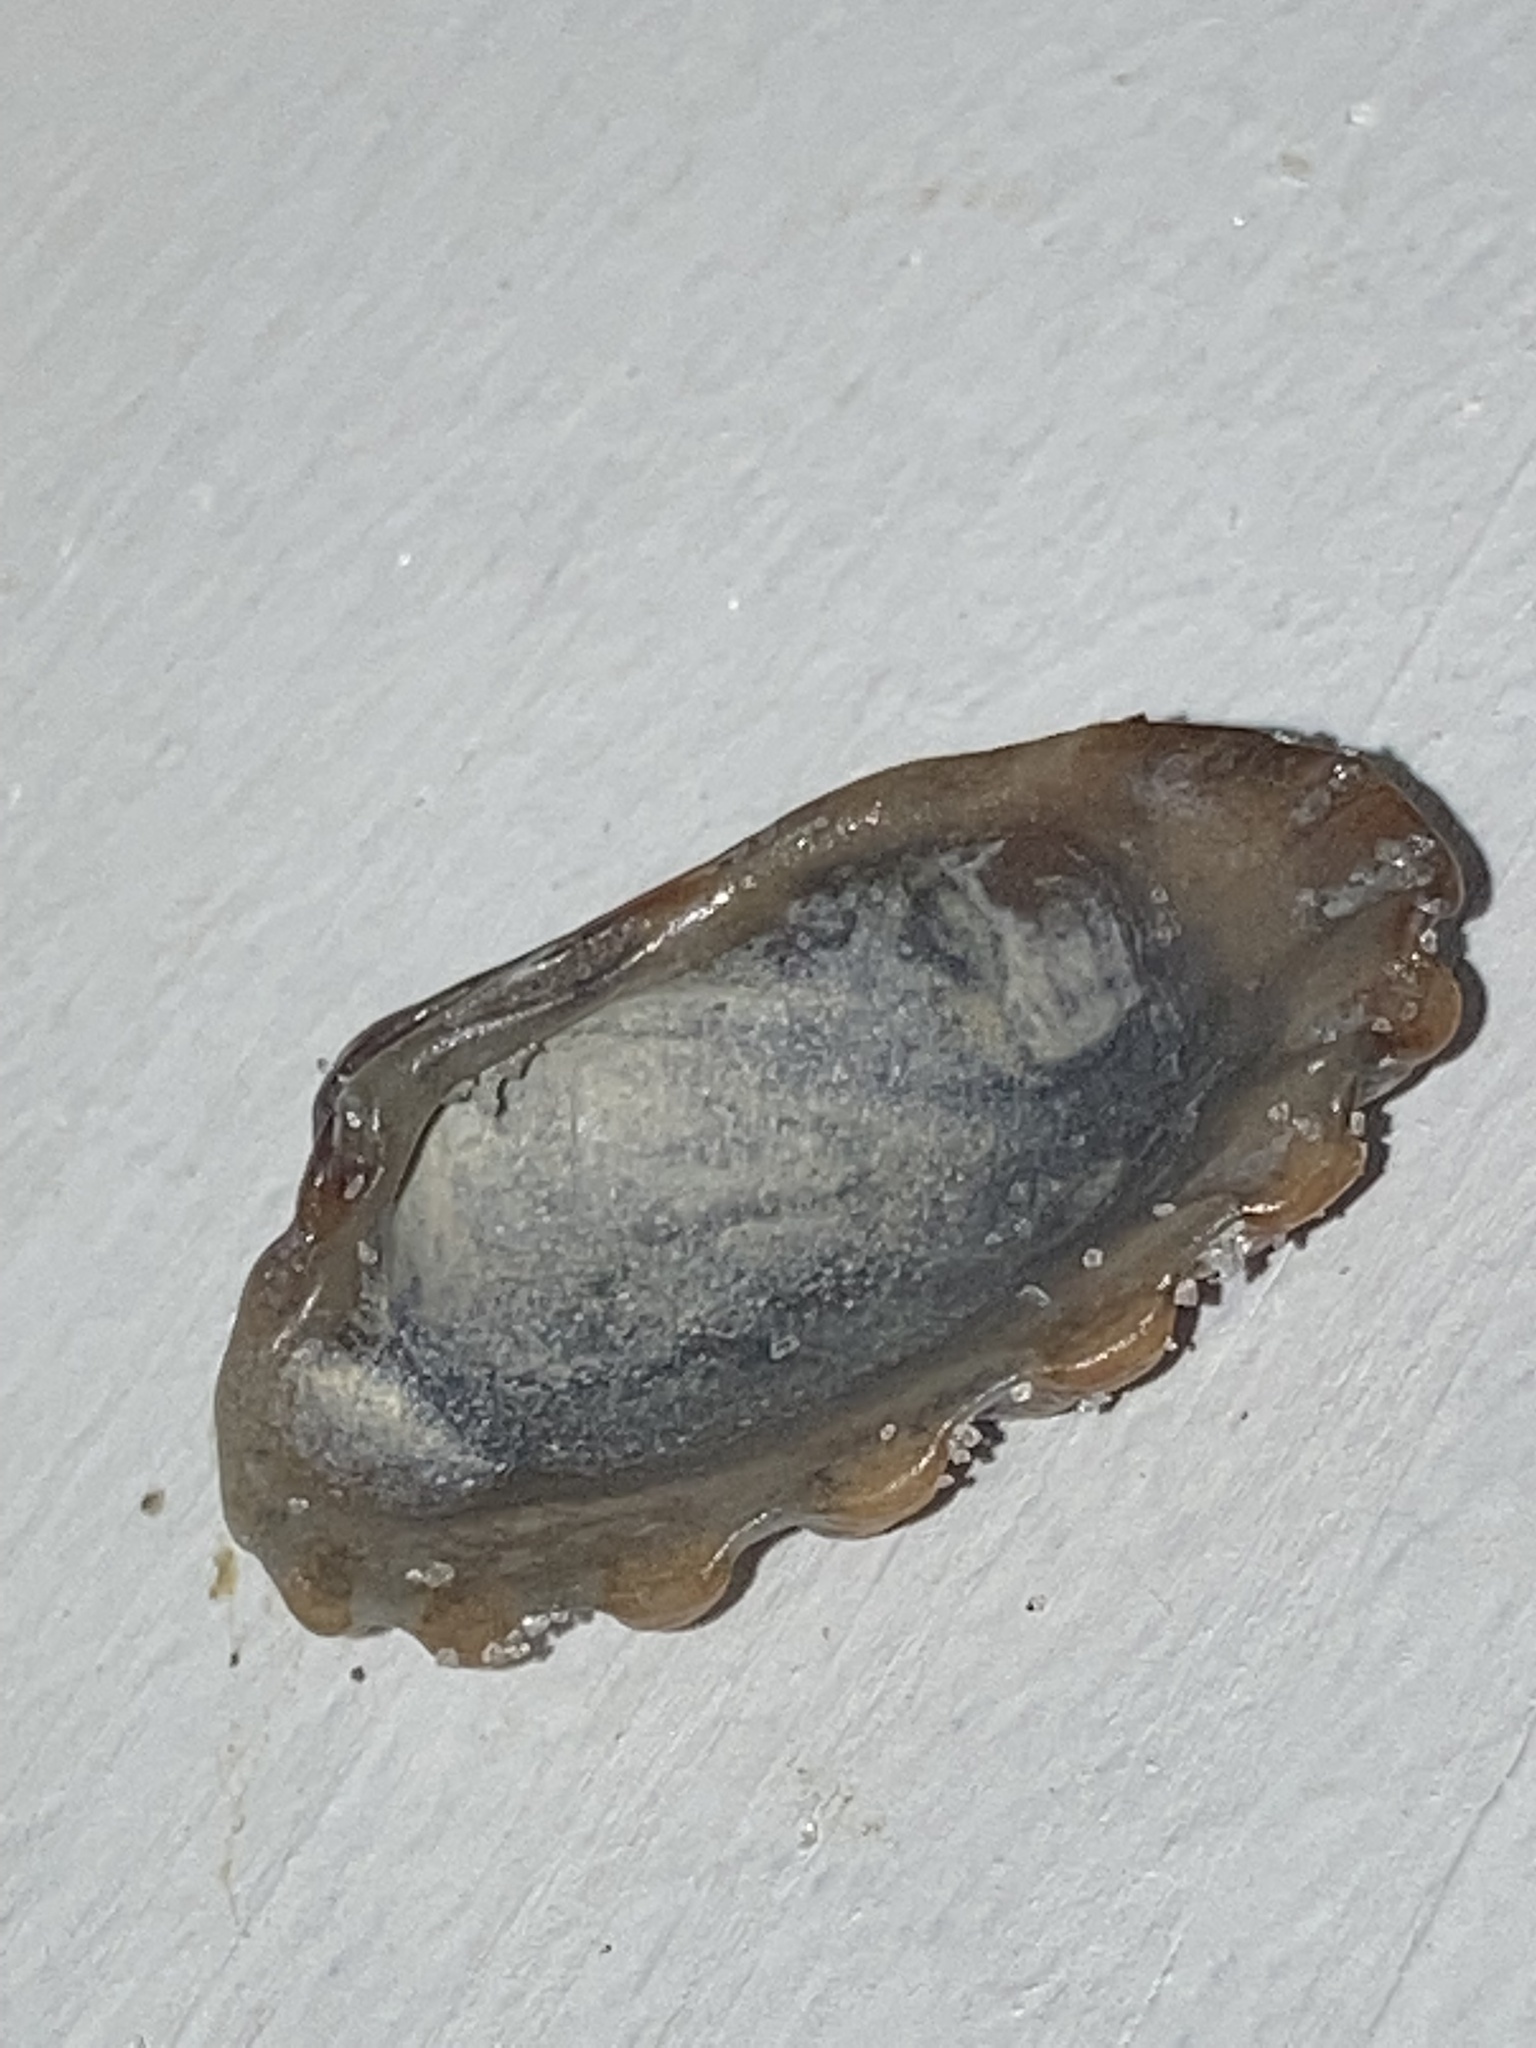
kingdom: Animalia
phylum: Mollusca
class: Bivalvia
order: Carditida
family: Carditidae
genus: Cardites
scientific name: Cardites floridanus
